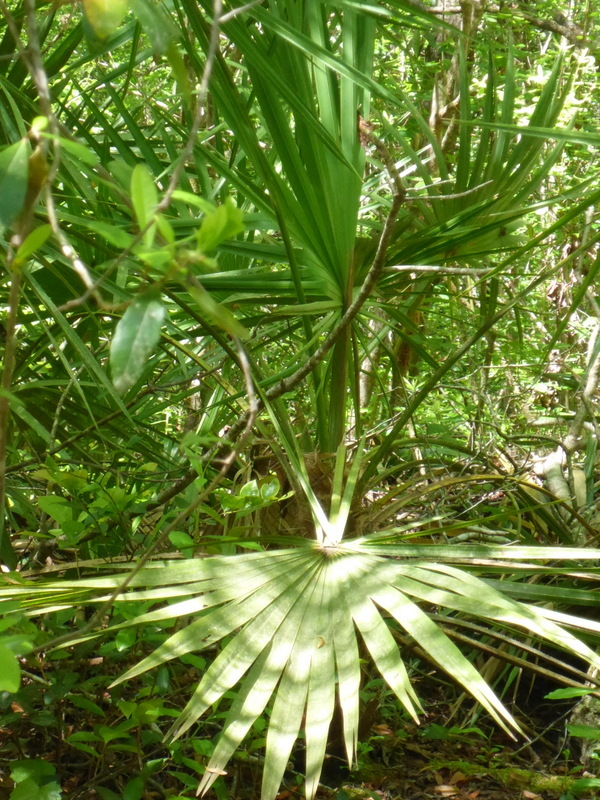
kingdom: Plantae
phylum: Tracheophyta
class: Liliopsida
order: Arecales
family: Arecaceae
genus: Serenoa
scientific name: Serenoa repens
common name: Saw-palmetto
